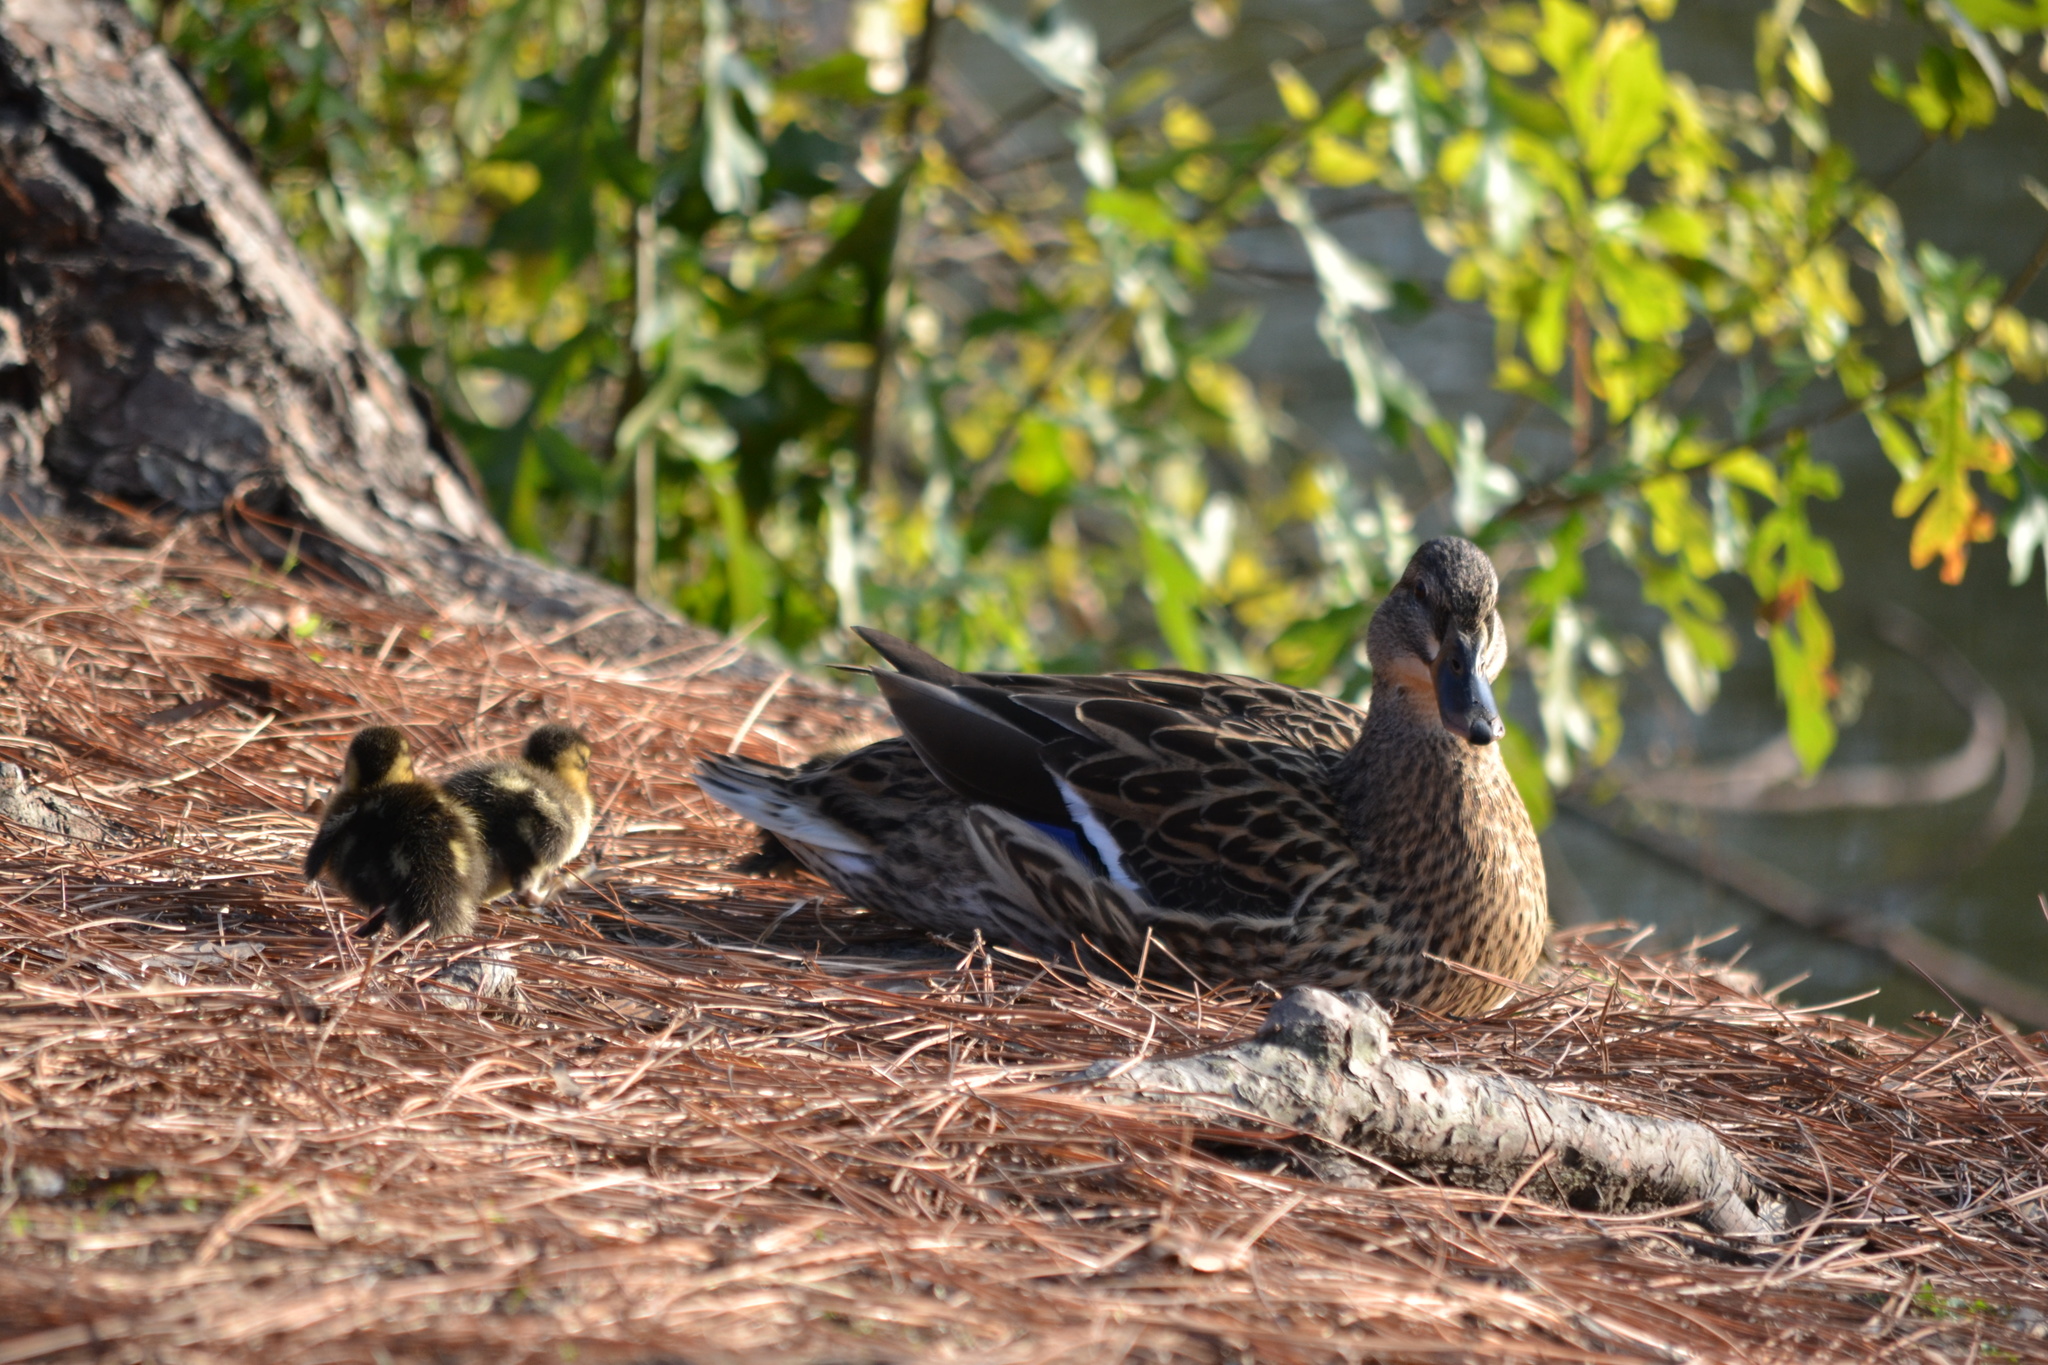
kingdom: Animalia
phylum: Chordata
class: Aves
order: Anseriformes
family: Anatidae
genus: Anas
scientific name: Anas platyrhynchos
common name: Mallard
